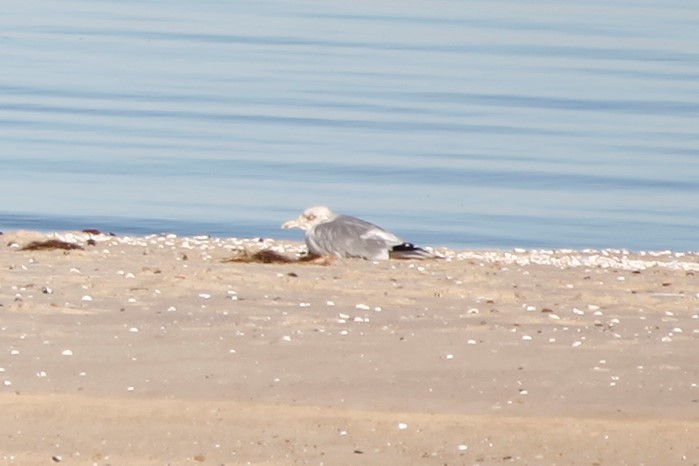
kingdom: Animalia
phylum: Chordata
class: Aves
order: Charadriiformes
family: Laridae
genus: Larus
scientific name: Larus argentatus
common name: Herring gull
